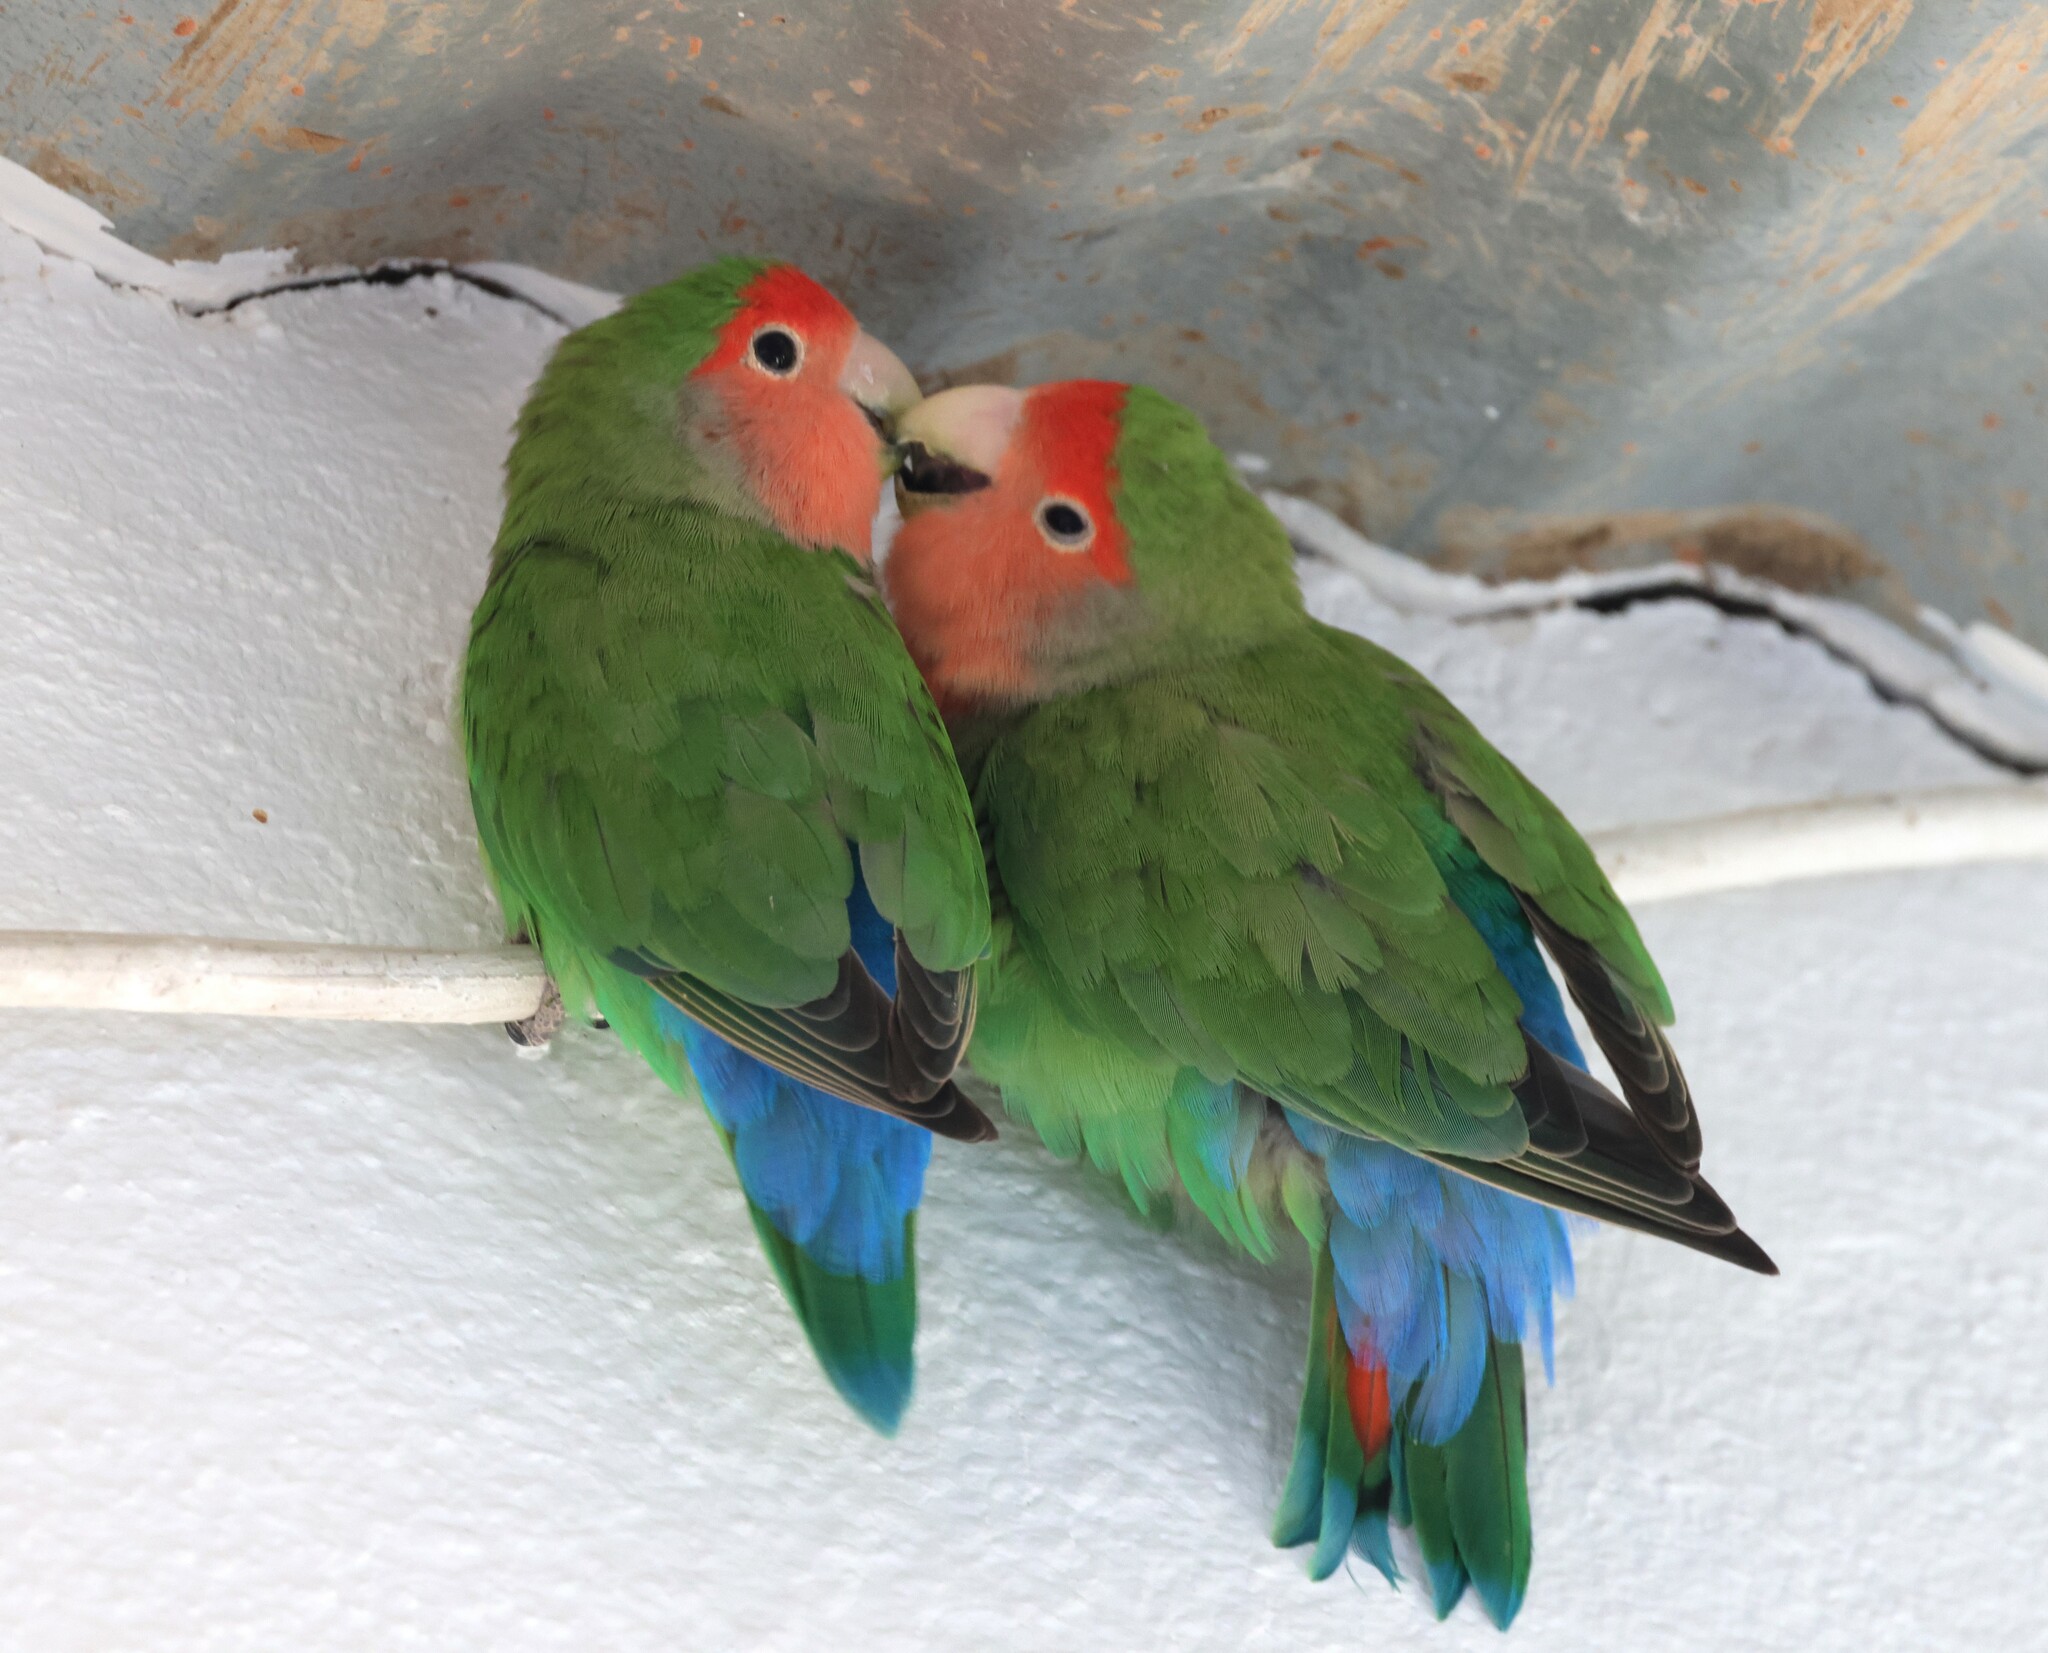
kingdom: Animalia
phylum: Chordata
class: Aves
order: Psittaciformes
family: Psittacidae
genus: Agapornis
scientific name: Agapornis roseicollis
